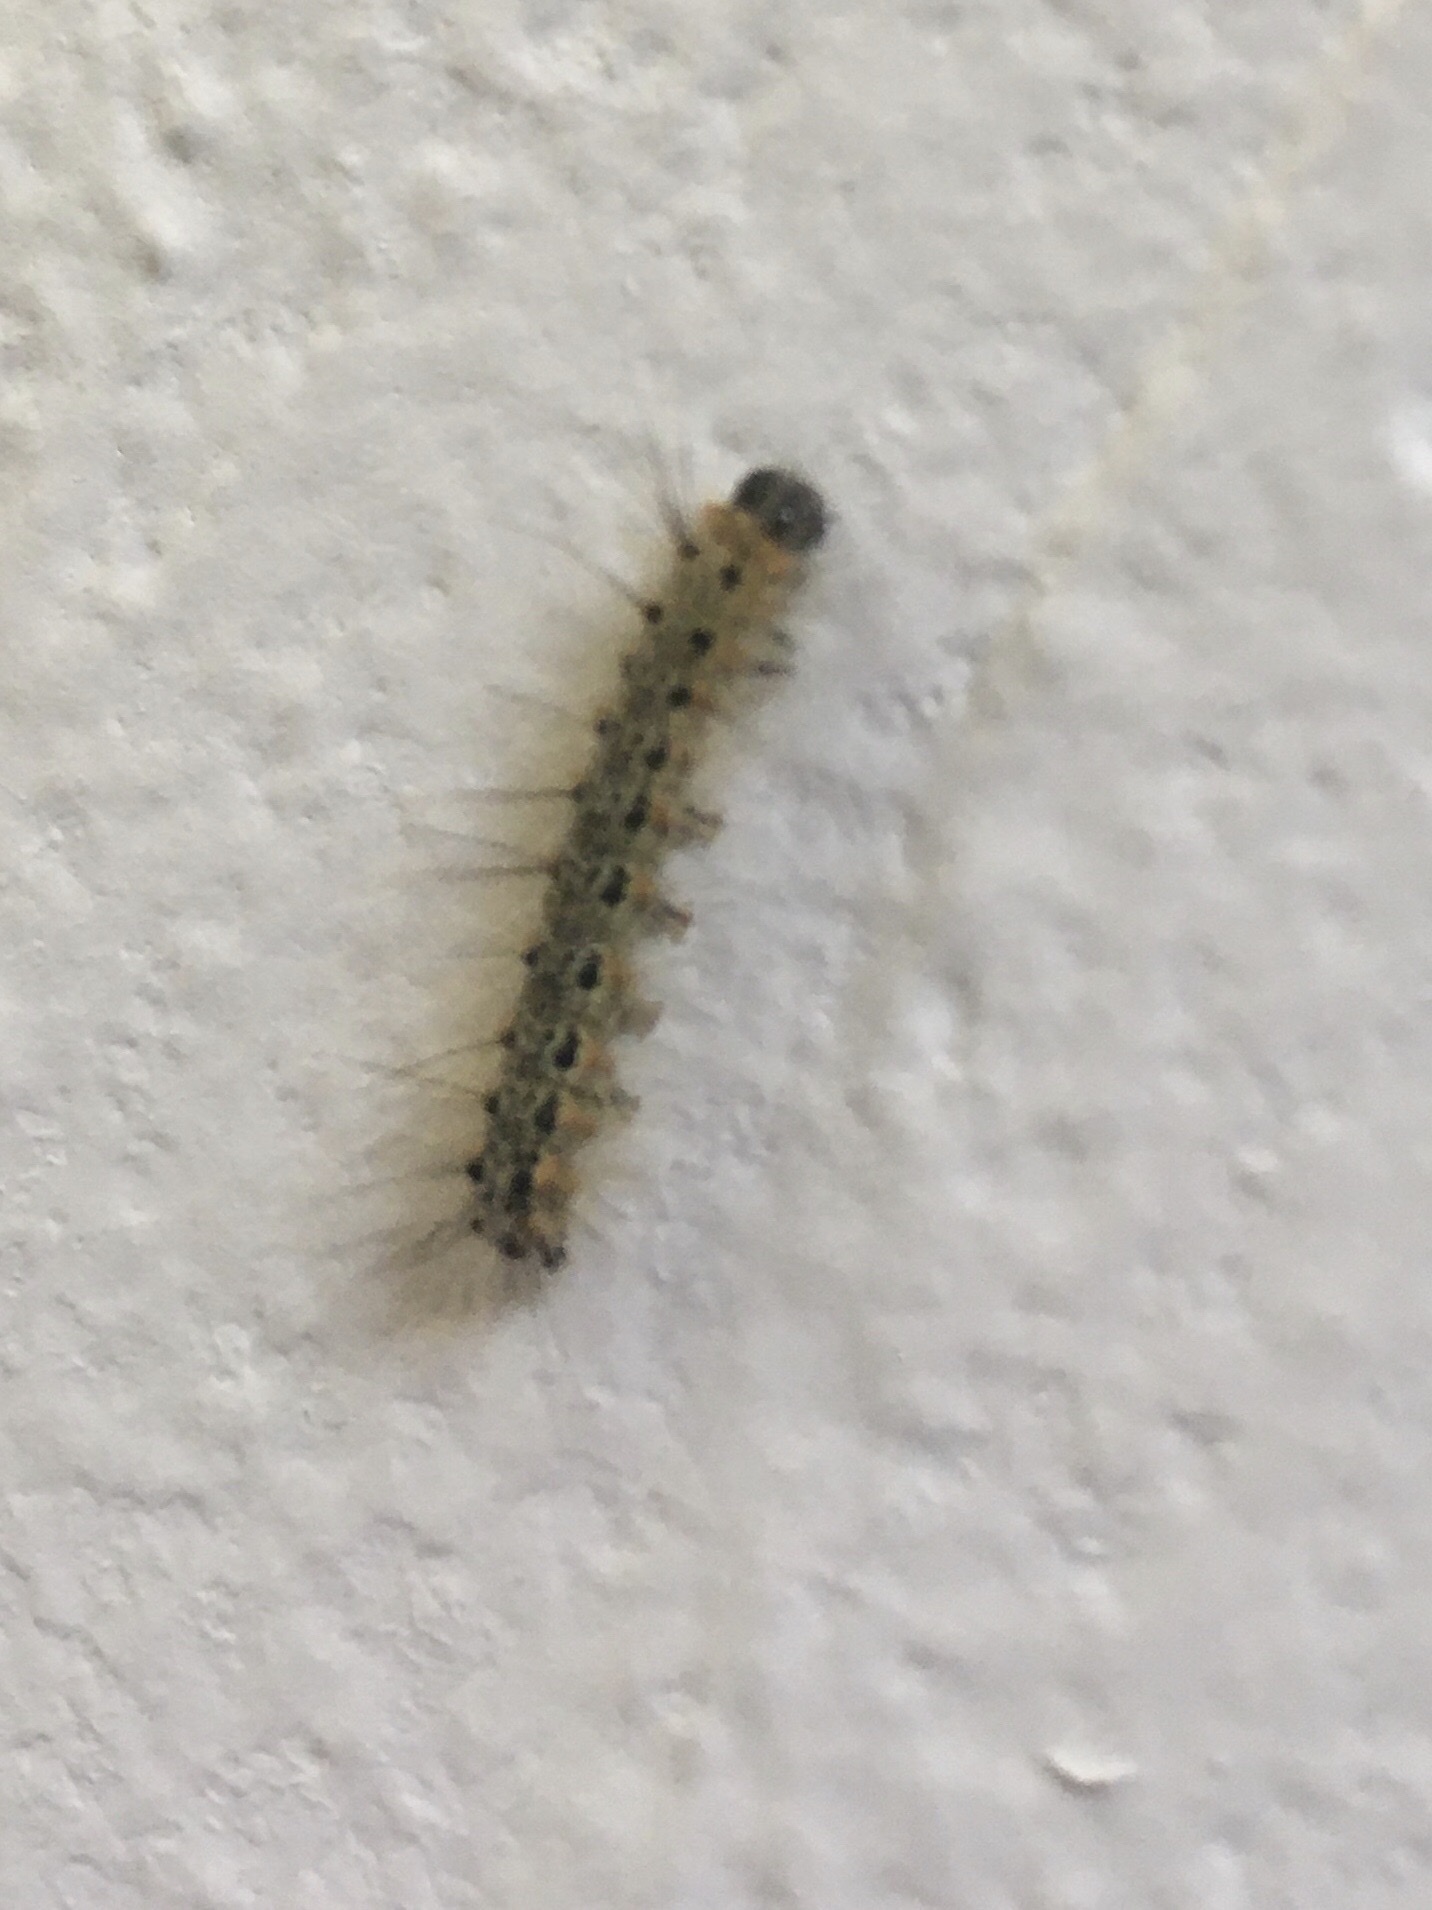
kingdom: Animalia
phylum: Arthropoda
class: Insecta
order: Lepidoptera
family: Erebidae
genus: Hyphantria
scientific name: Hyphantria cunea
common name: American white moth
